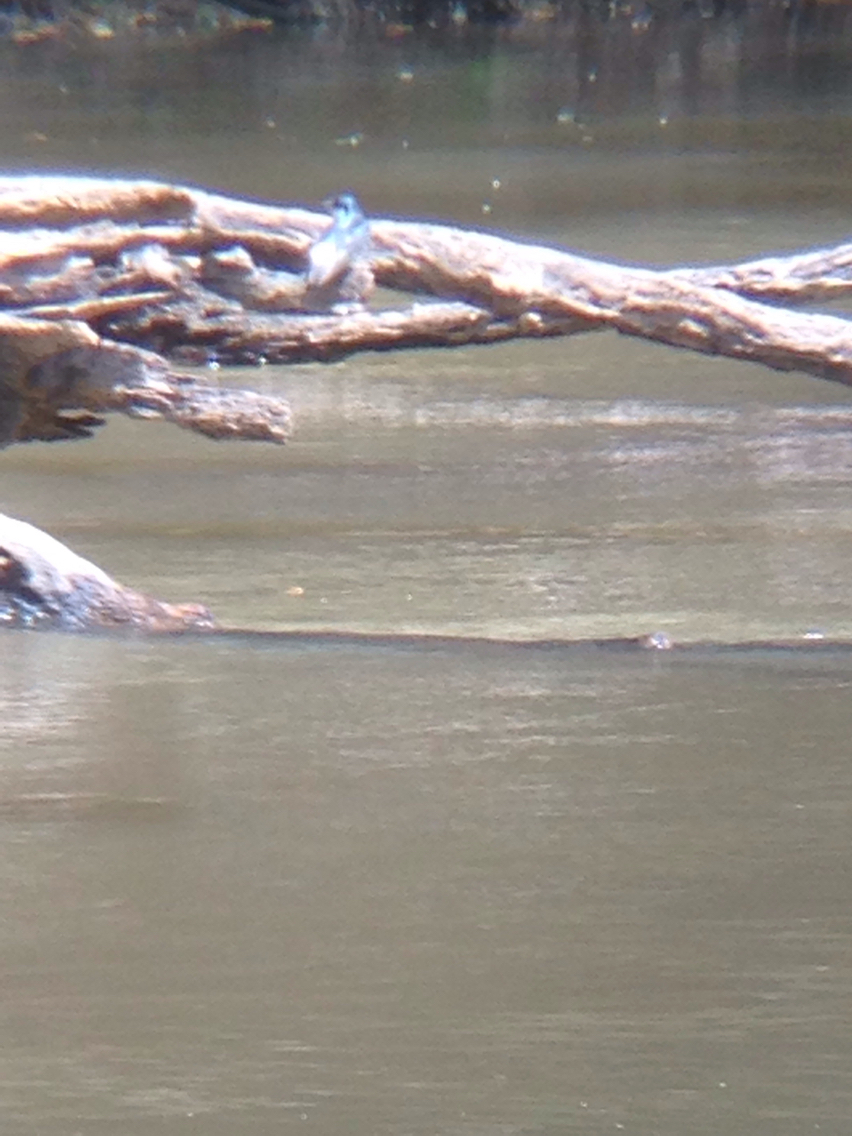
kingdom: Animalia
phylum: Chordata
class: Aves
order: Passeriformes
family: Hirundinidae
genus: Tachycineta
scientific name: Tachycineta albilinea
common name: Mangrove swallow
